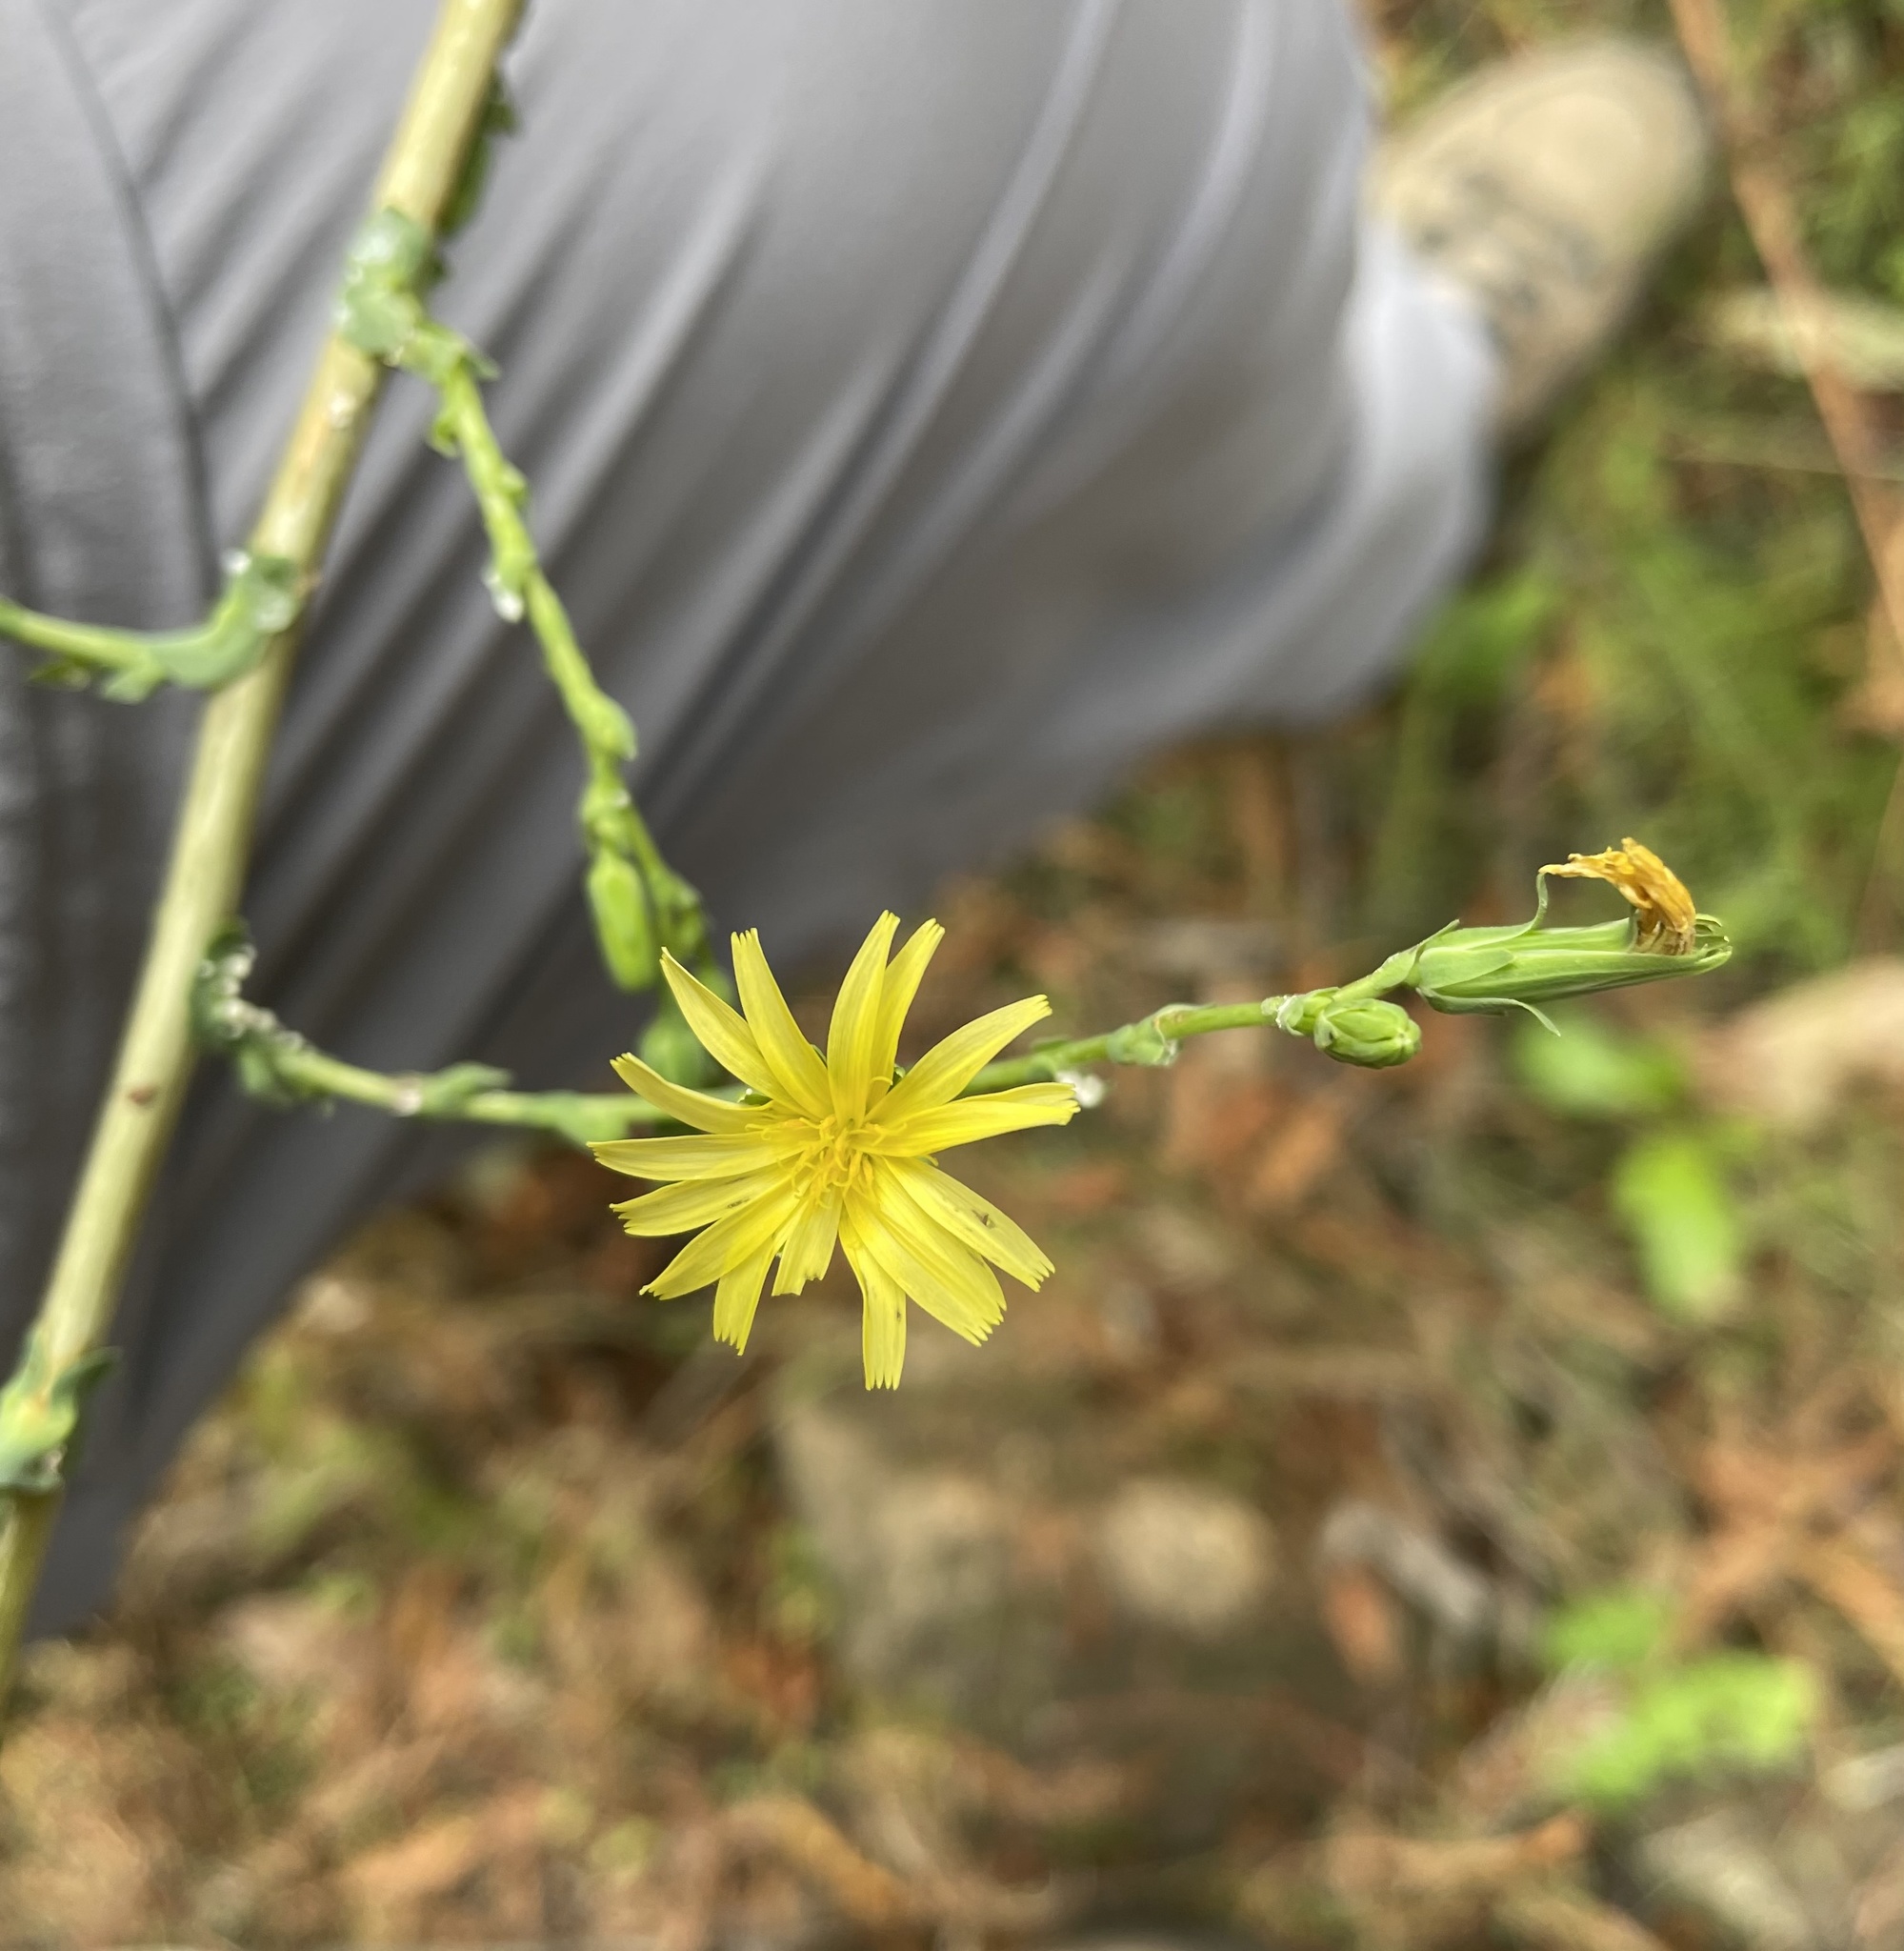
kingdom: Plantae
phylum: Tracheophyta
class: Magnoliopsida
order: Asterales
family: Asteraceae
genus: Lactuca
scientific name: Lactuca serriola
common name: Prickly lettuce
